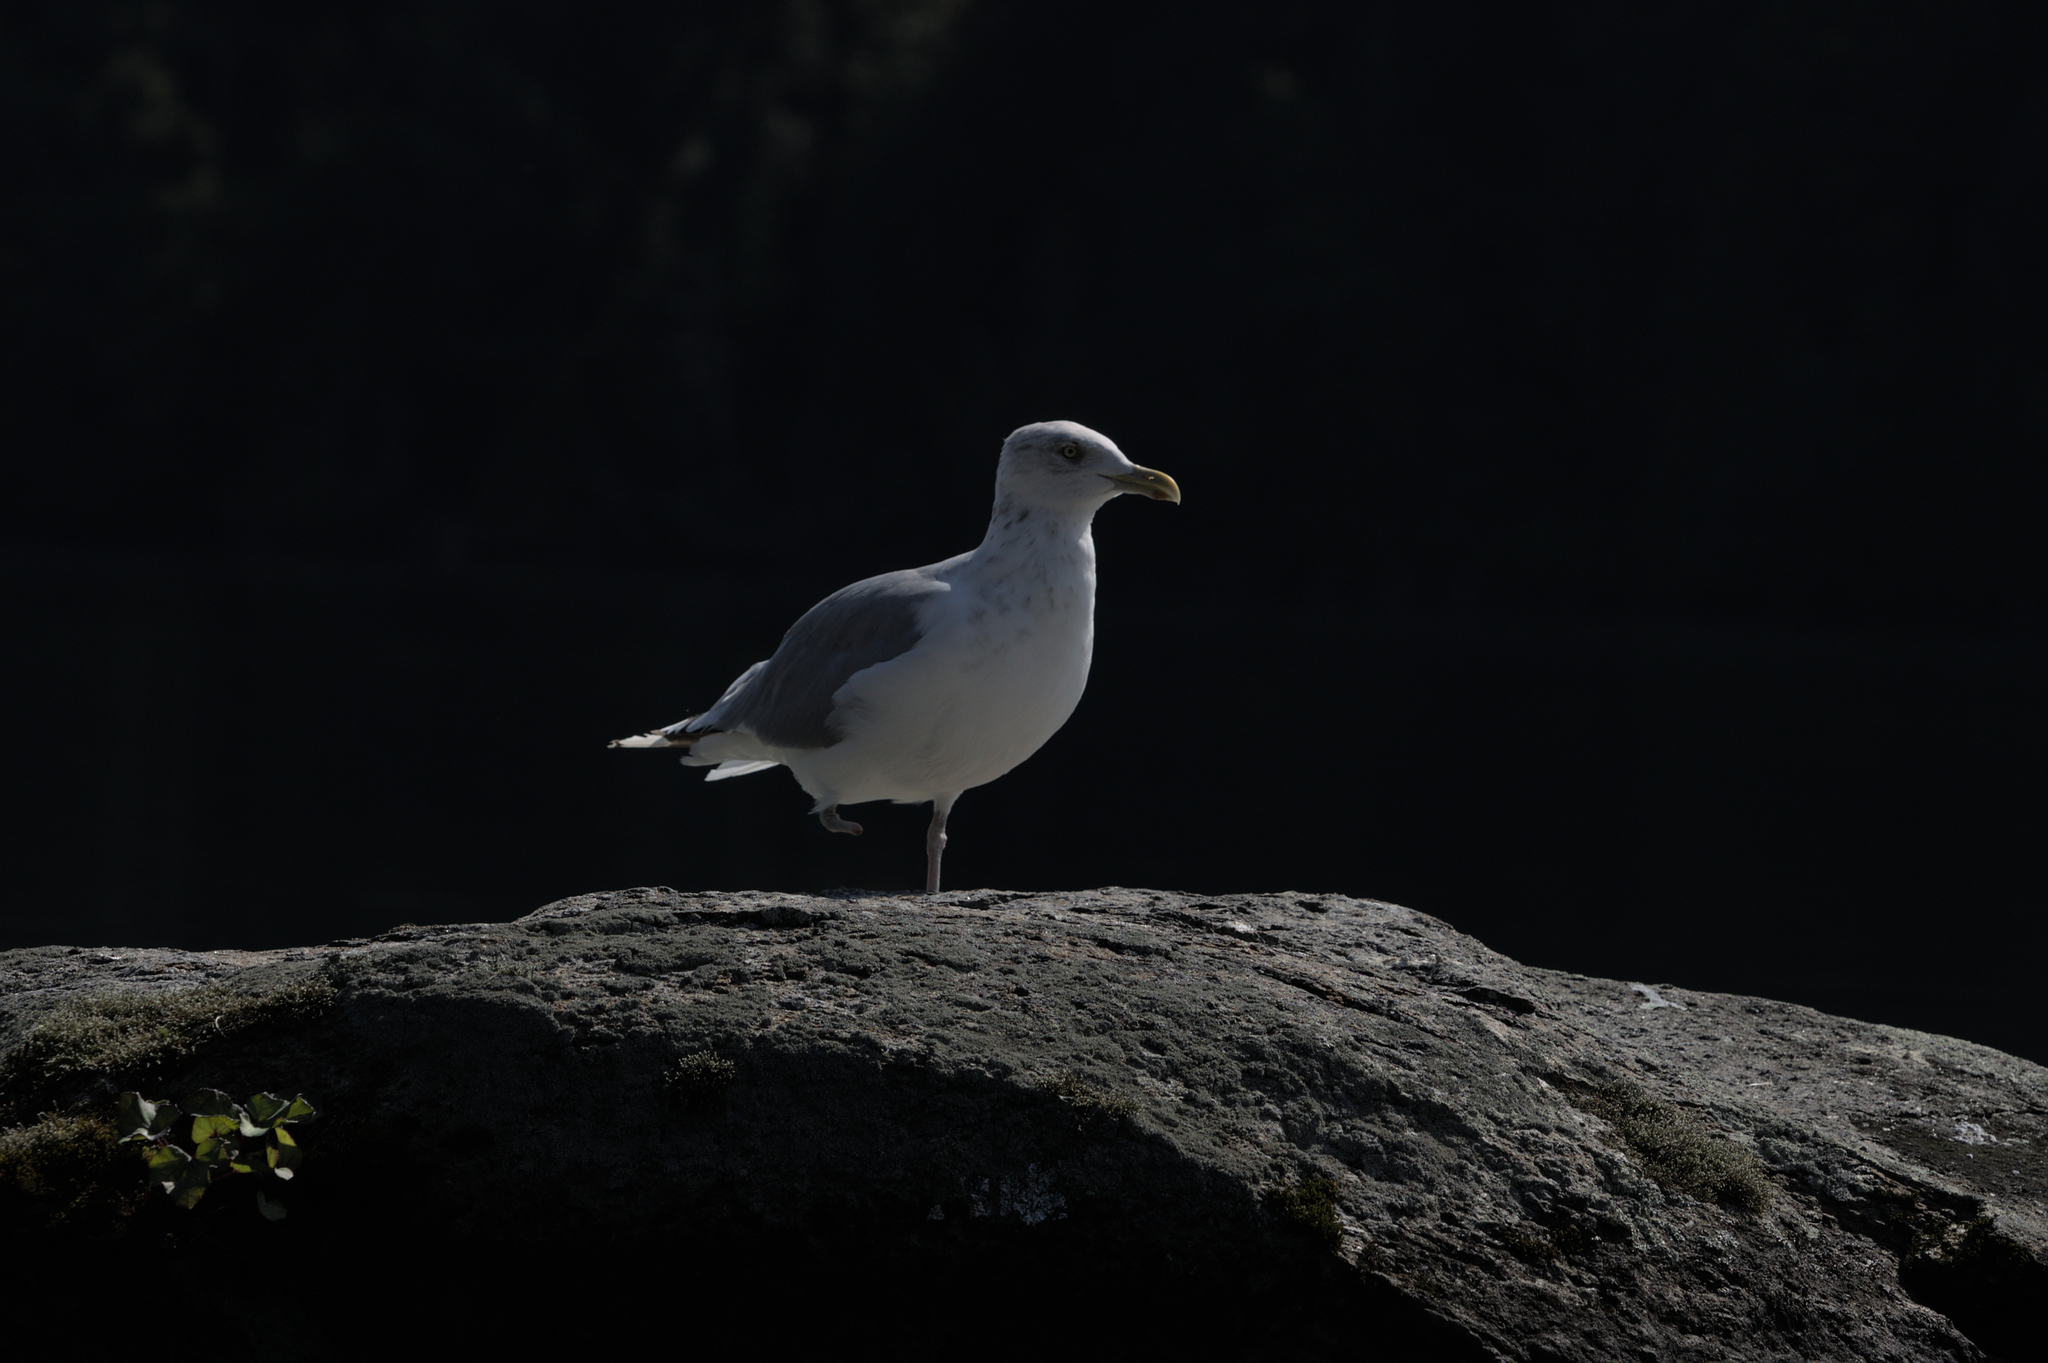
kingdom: Animalia
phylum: Chordata
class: Aves
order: Charadriiformes
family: Laridae
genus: Larus
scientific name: Larus argentatus
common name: Herring gull
